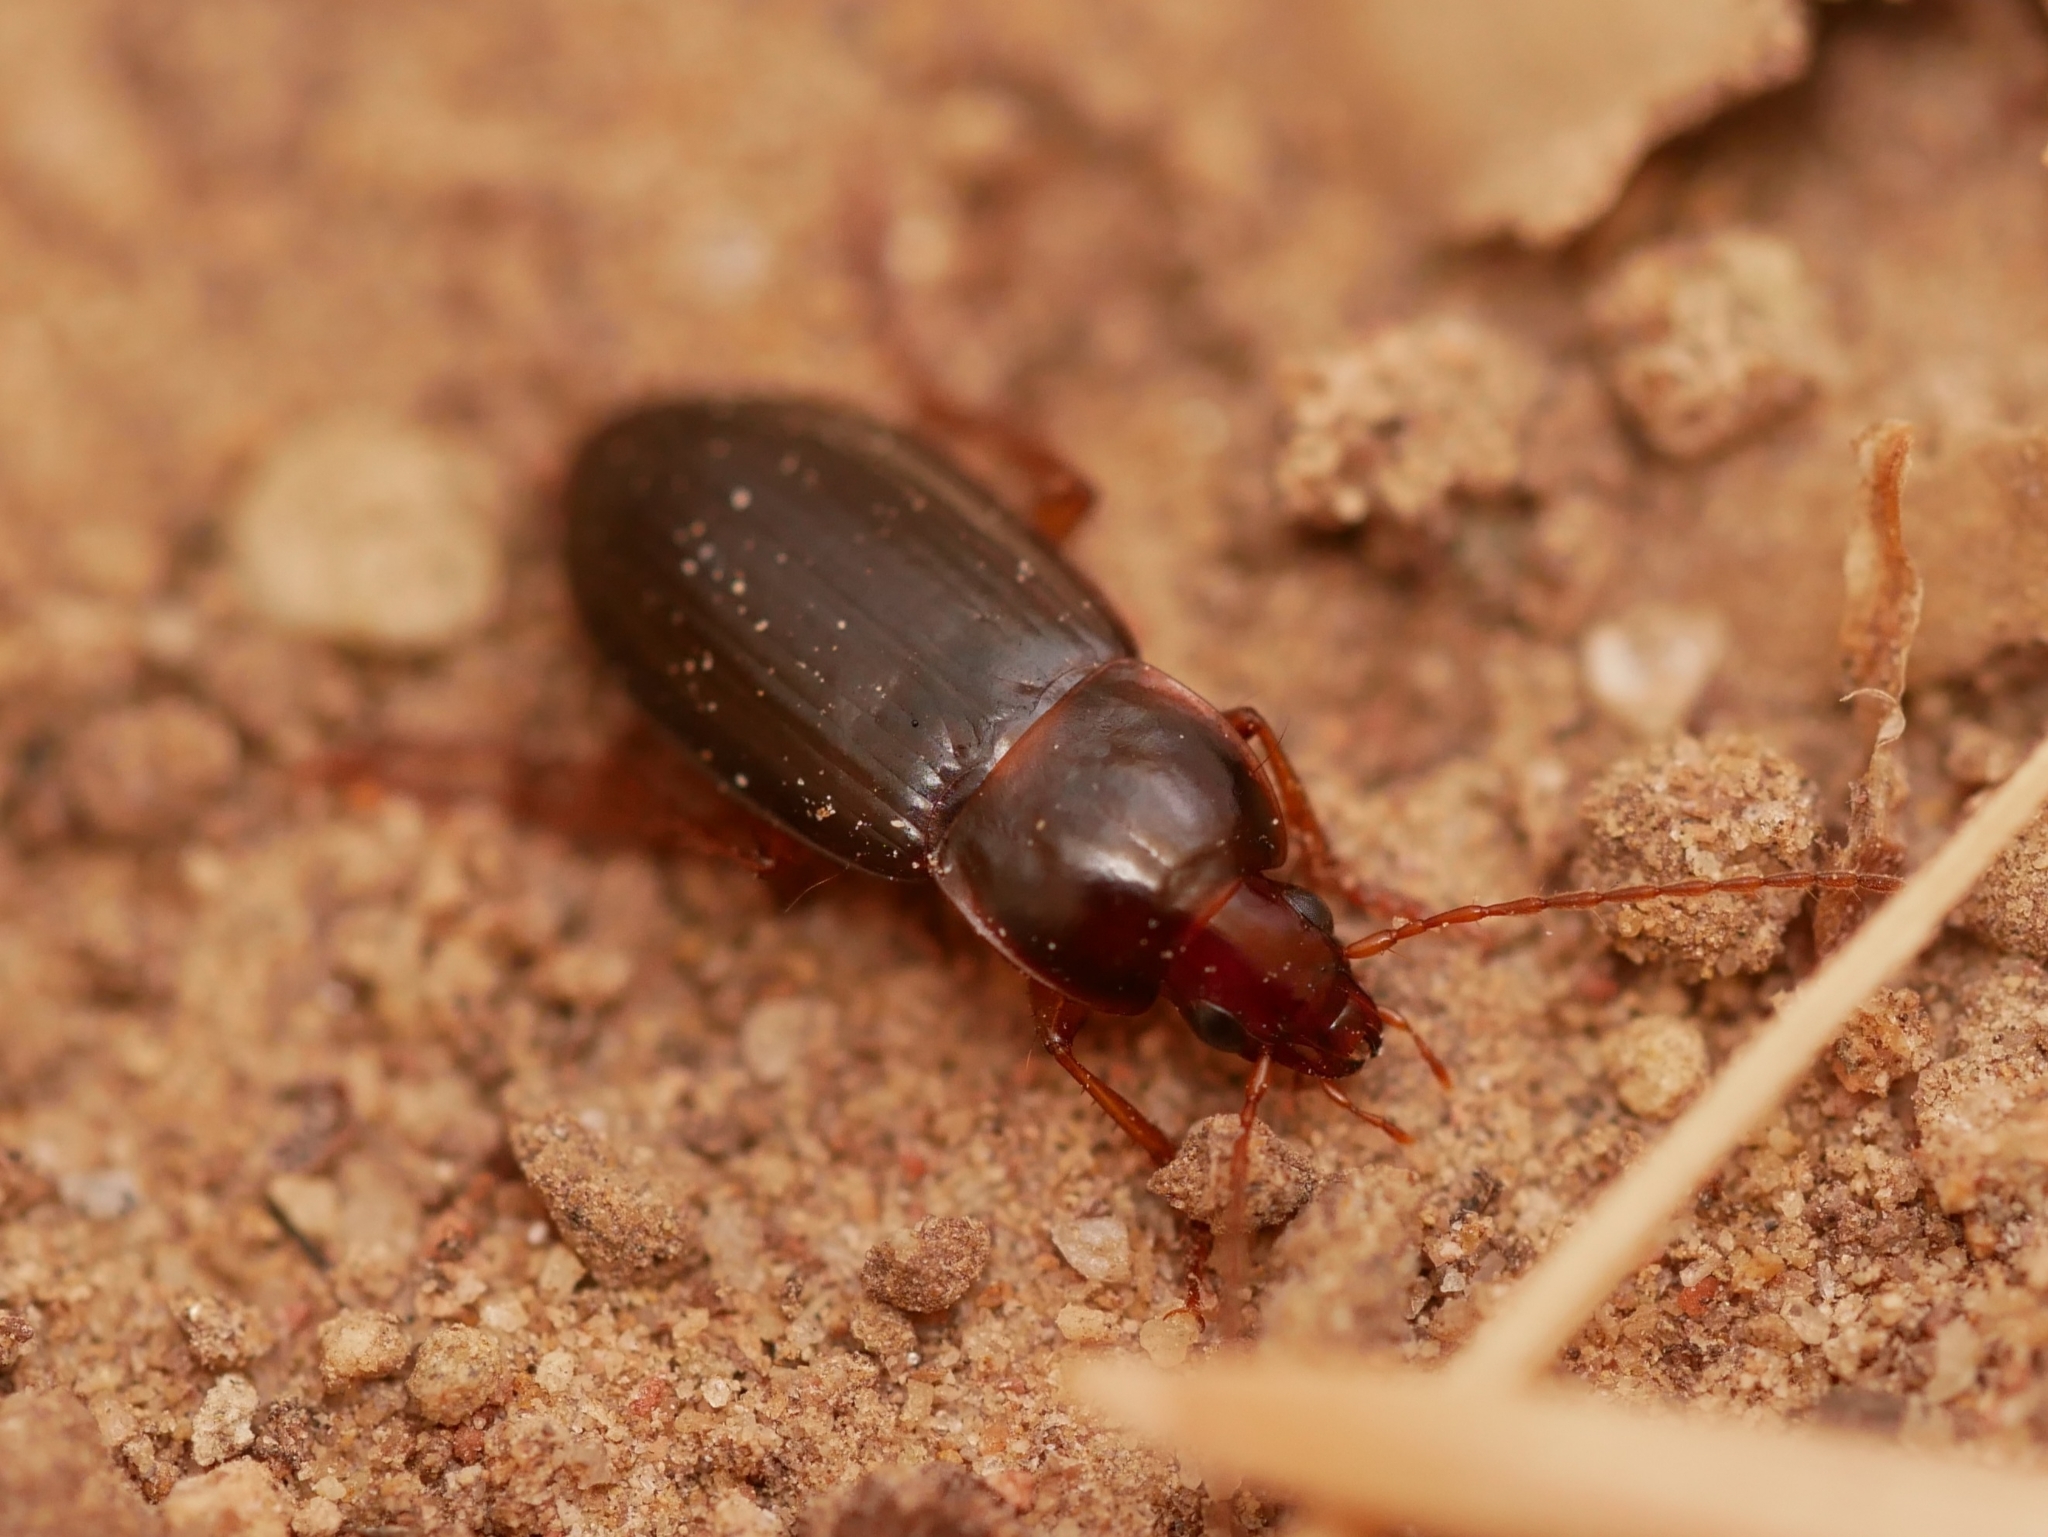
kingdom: Animalia
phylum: Arthropoda
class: Insecta
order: Coleoptera
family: Carabidae
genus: Calathus
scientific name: Calathus ruficollis
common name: Red-collared harp ground beetle
